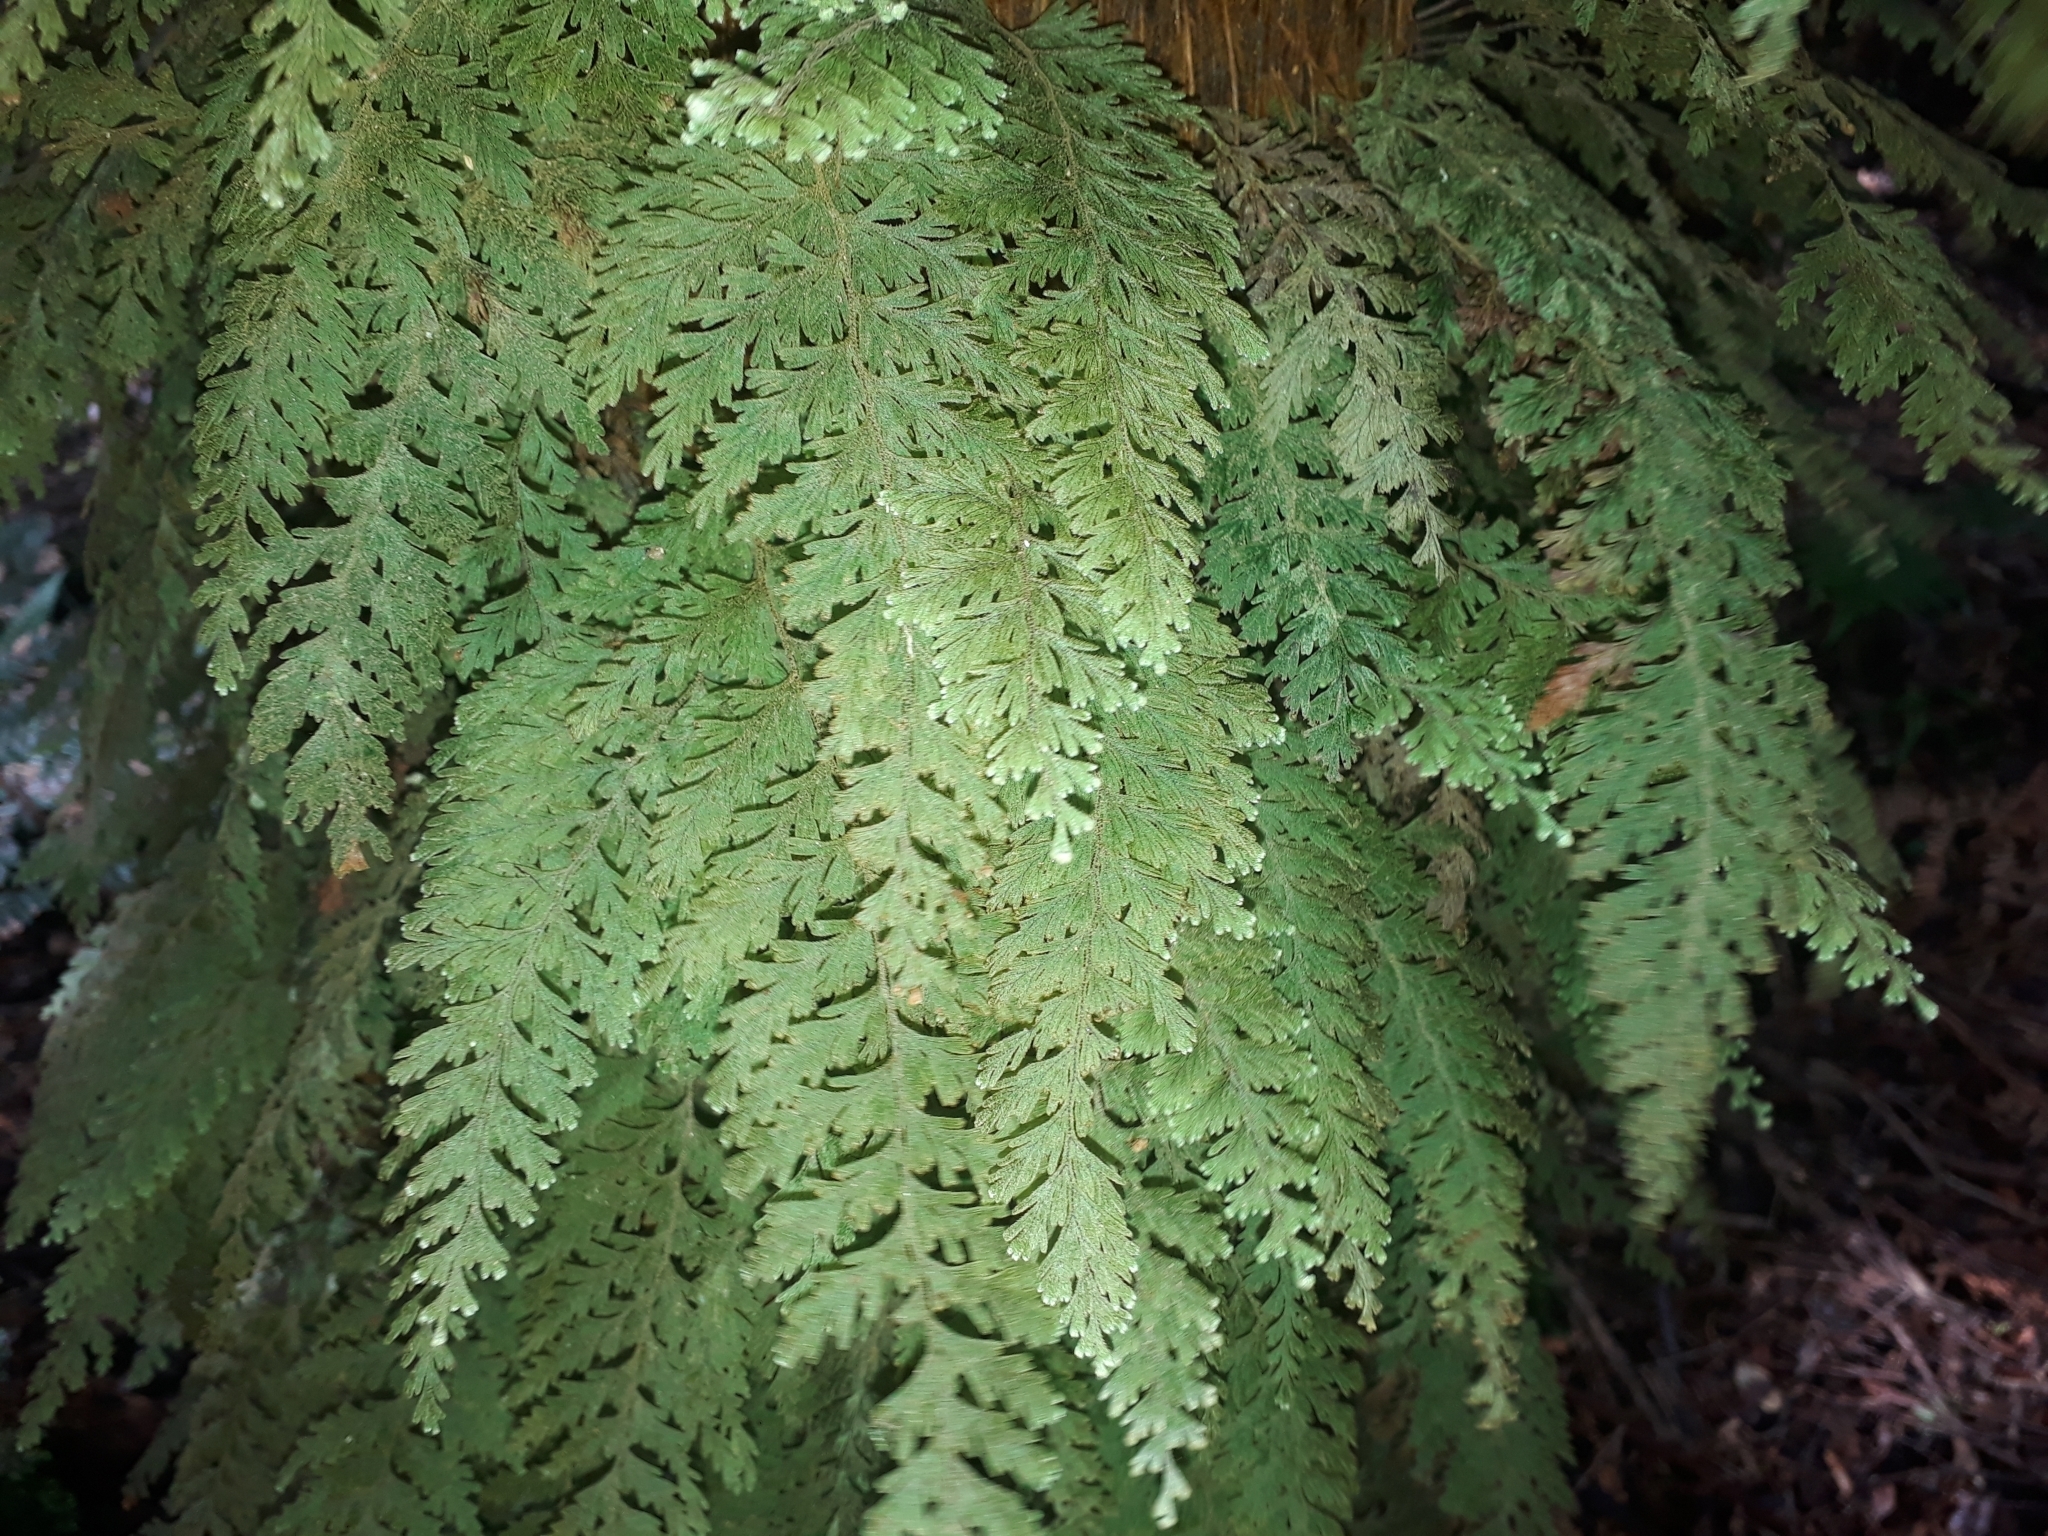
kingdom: Plantae
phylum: Tracheophyta
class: Polypodiopsida
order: Hymenophyllales
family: Hymenophyllaceae
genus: Hymenophyllum
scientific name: Hymenophyllum frankliniae
